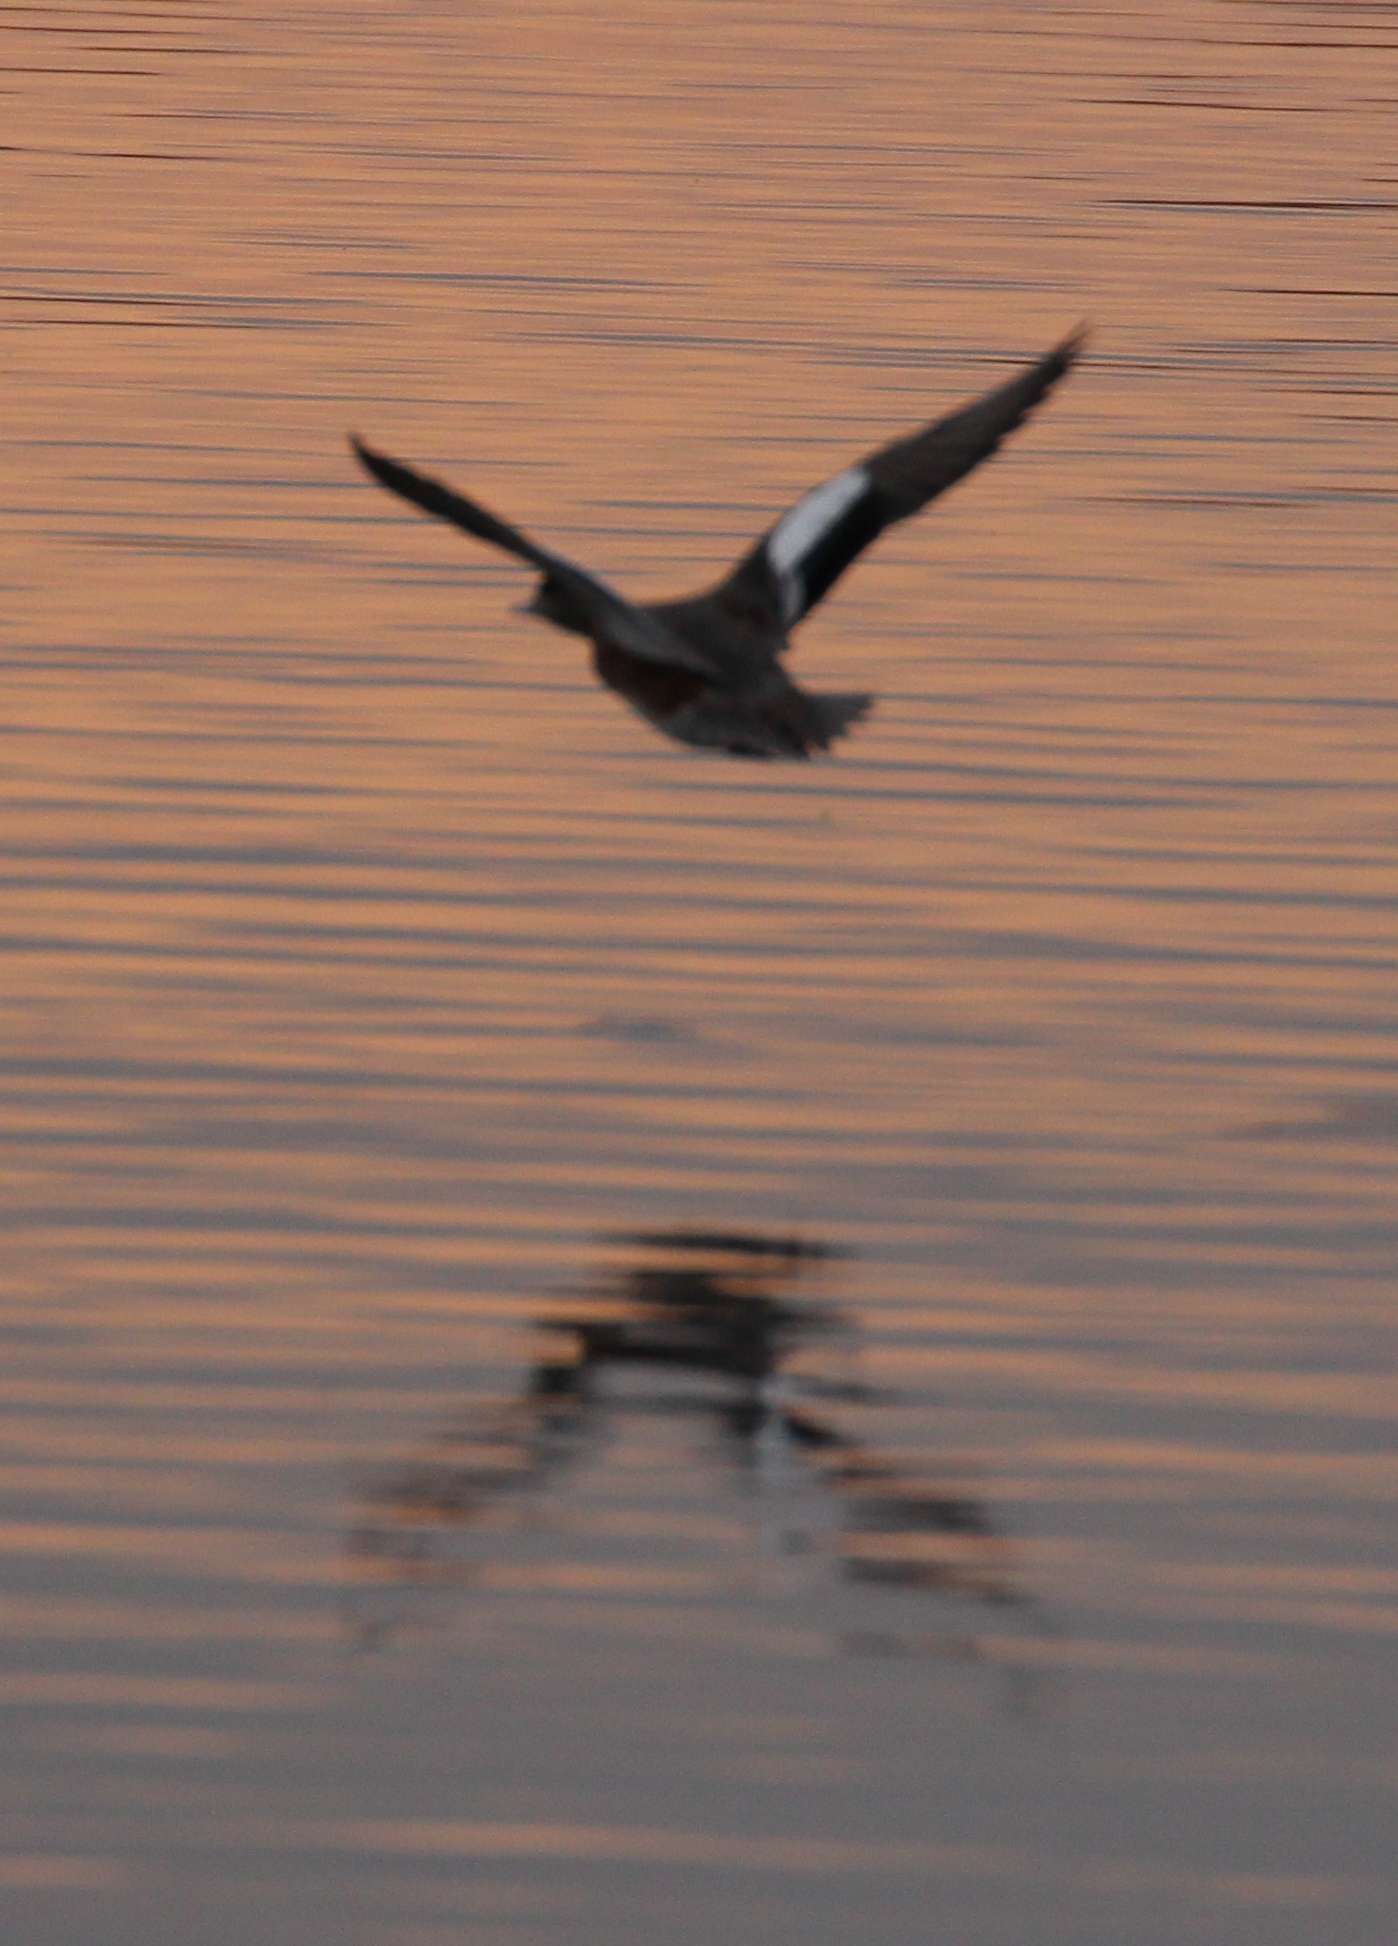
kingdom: Animalia
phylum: Chordata
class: Aves
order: Anseriformes
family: Anatidae
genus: Mareca
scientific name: Mareca americana
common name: American wigeon
